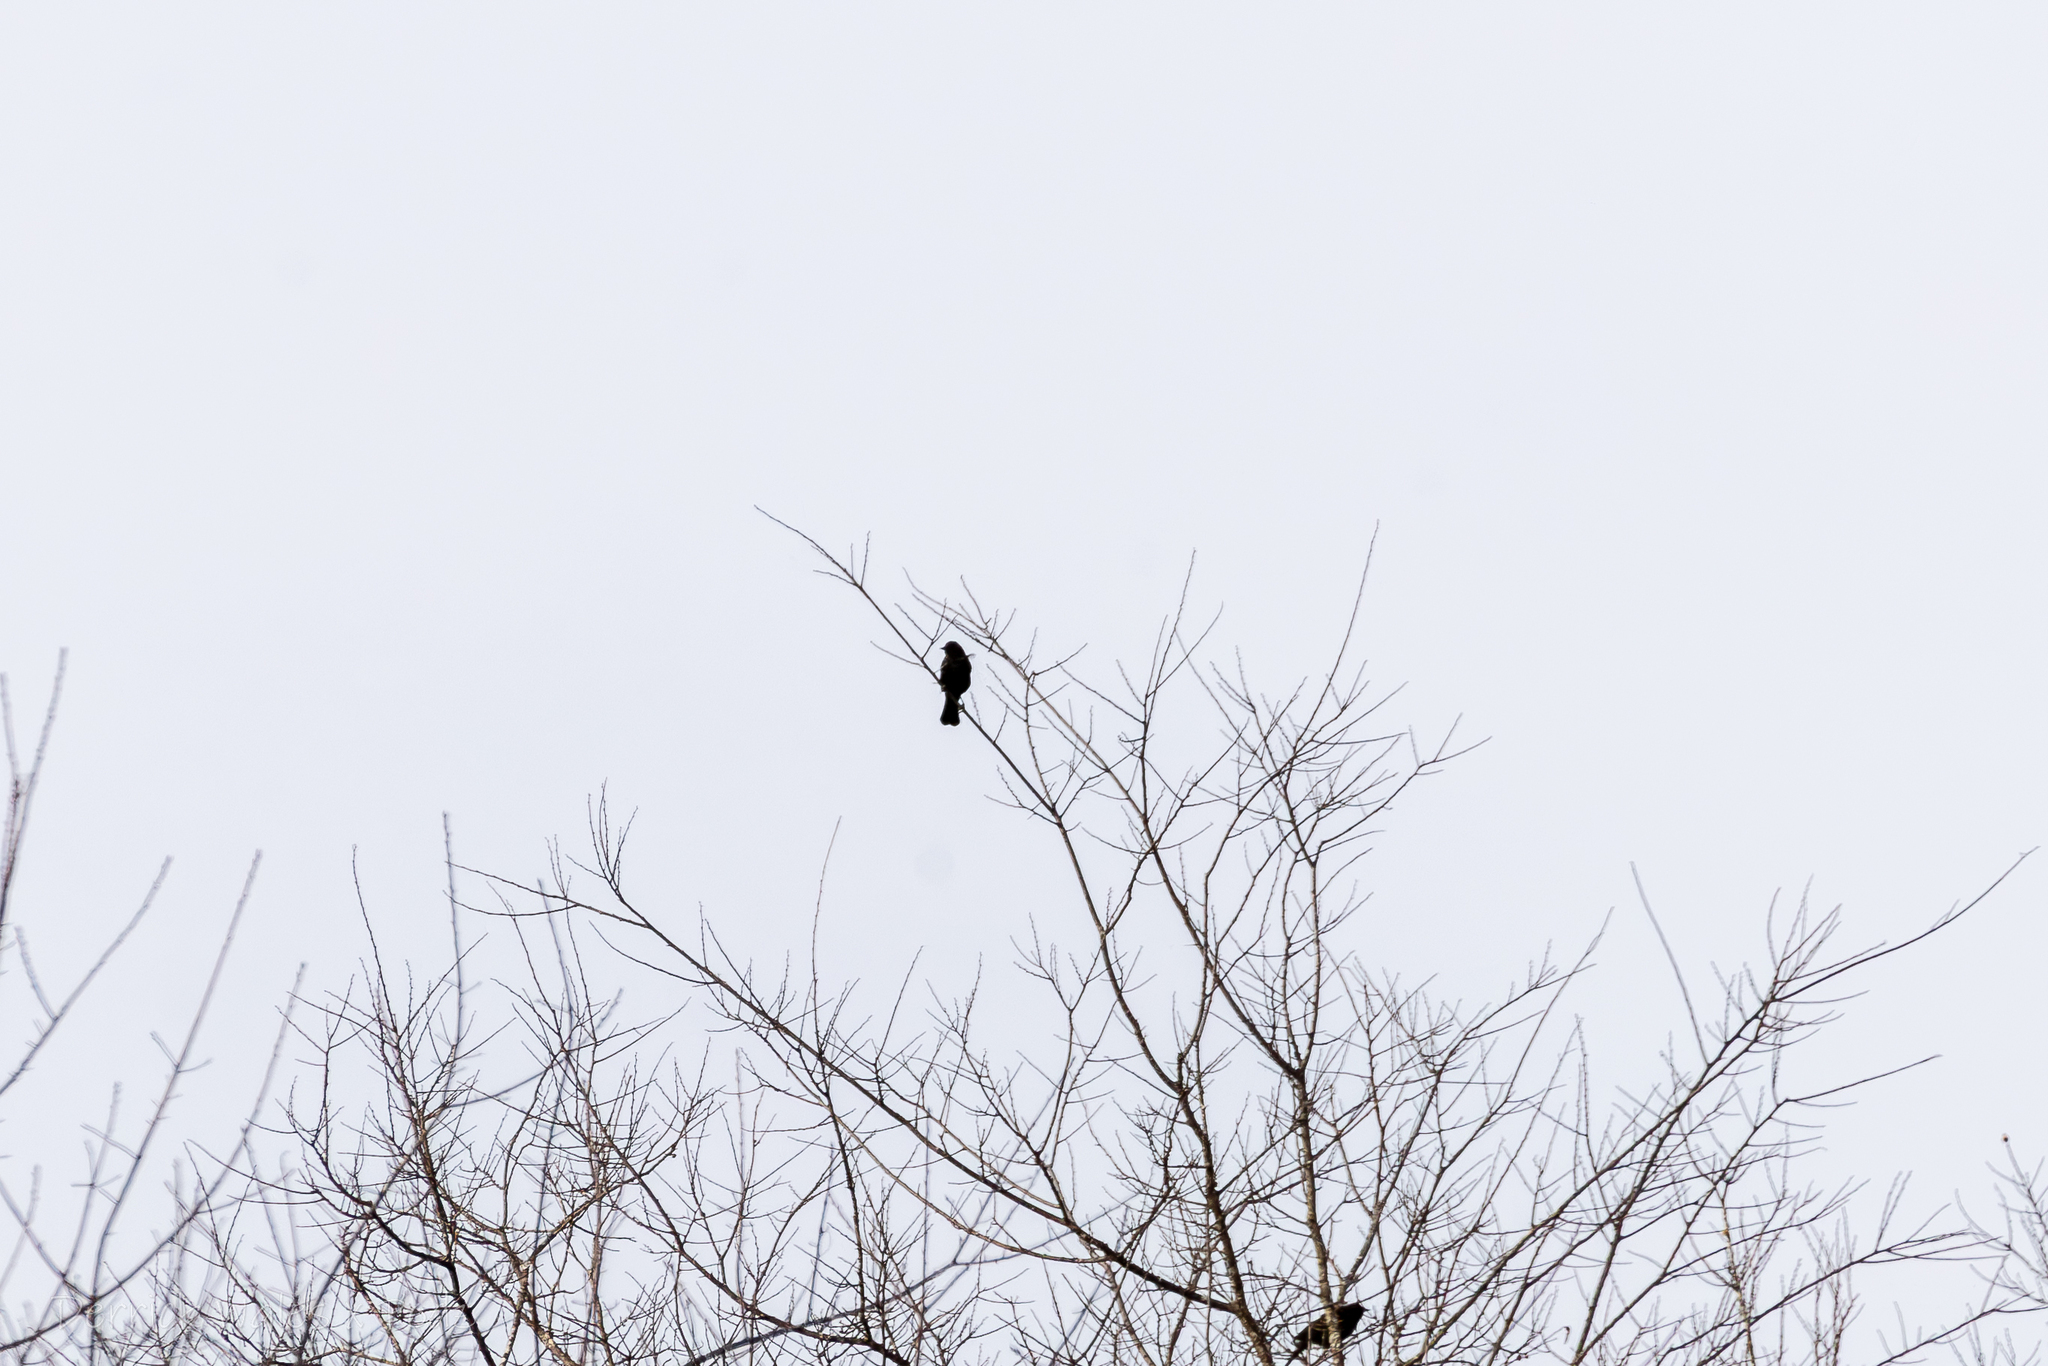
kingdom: Animalia
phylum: Chordata
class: Aves
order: Passeriformes
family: Icteridae
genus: Agelaius
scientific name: Agelaius phoeniceus
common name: Red-winged blackbird
